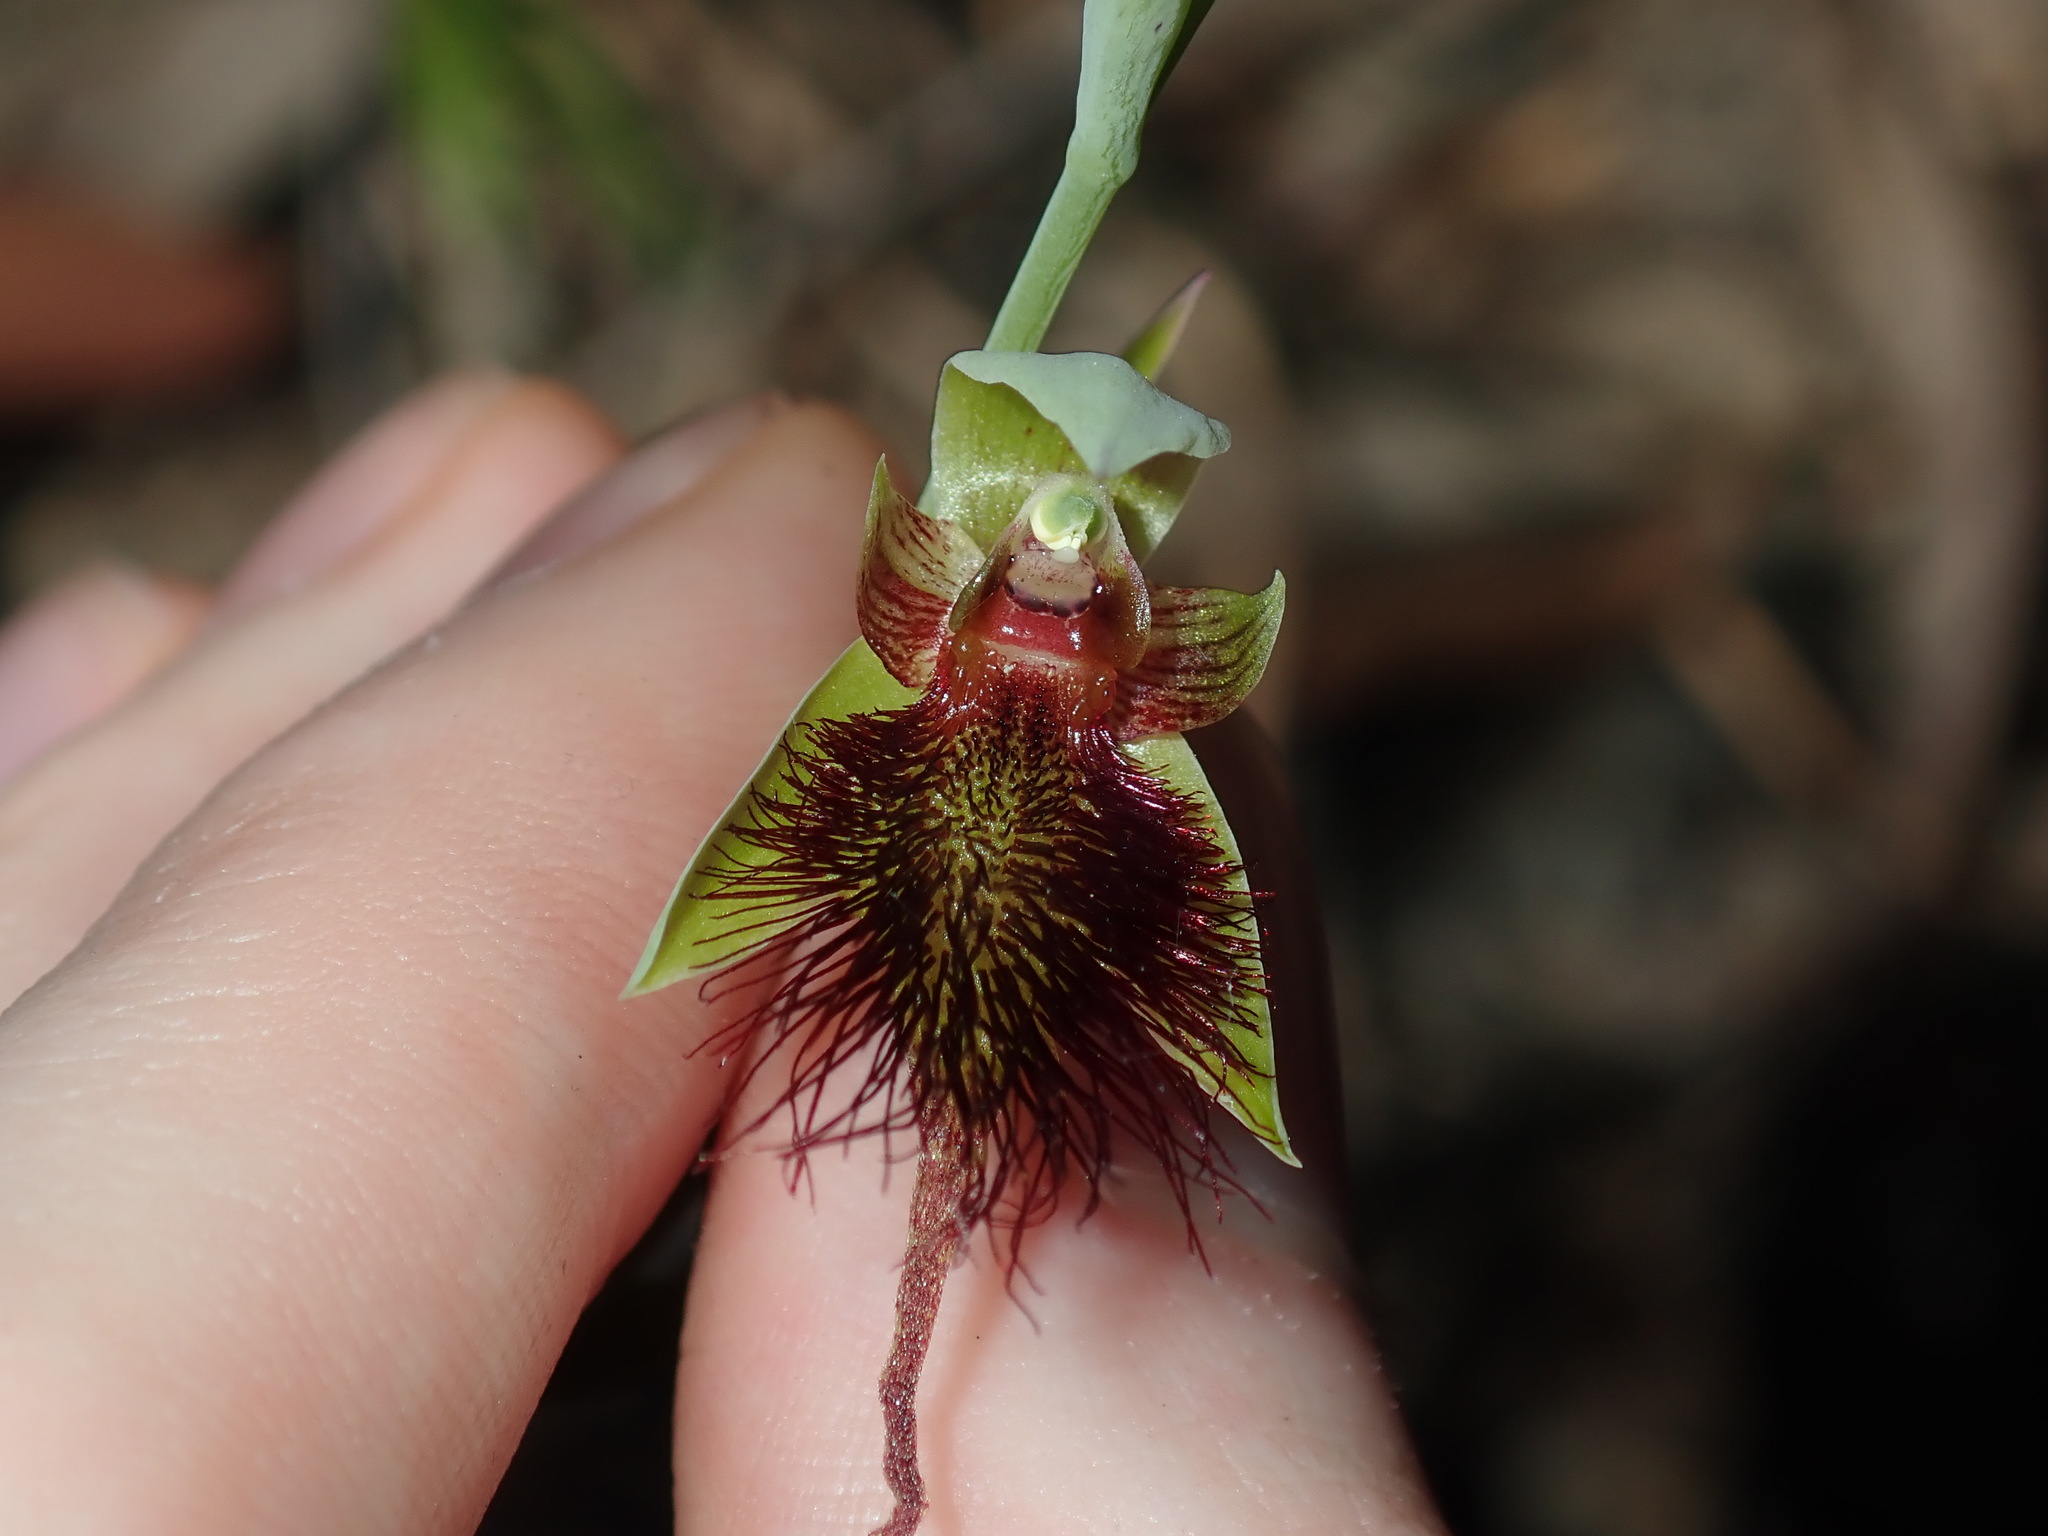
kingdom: Plantae
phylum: Tracheophyta
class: Liliopsida
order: Asparagales
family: Orchidaceae
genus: Calochilus
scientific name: Calochilus paludosus
